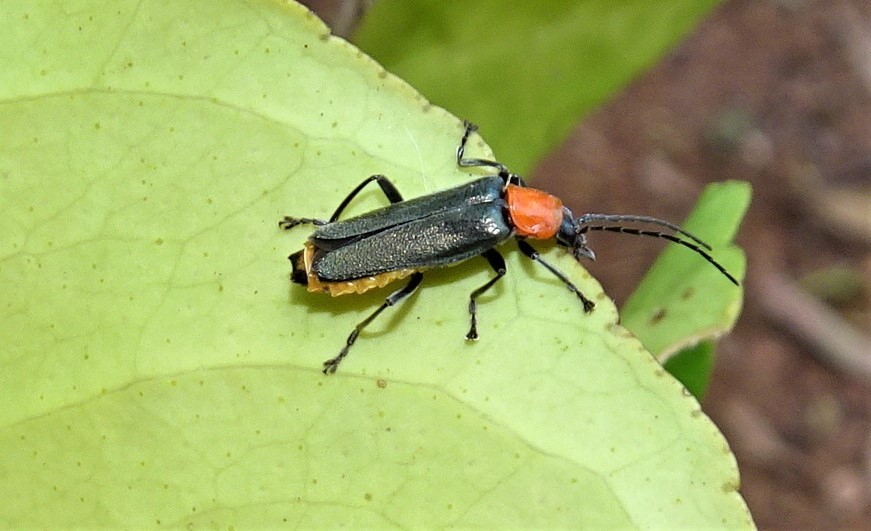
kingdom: Animalia
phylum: Arthropoda
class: Insecta
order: Coleoptera
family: Cantharidae
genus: Chauliognathus
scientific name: Chauliognathus
